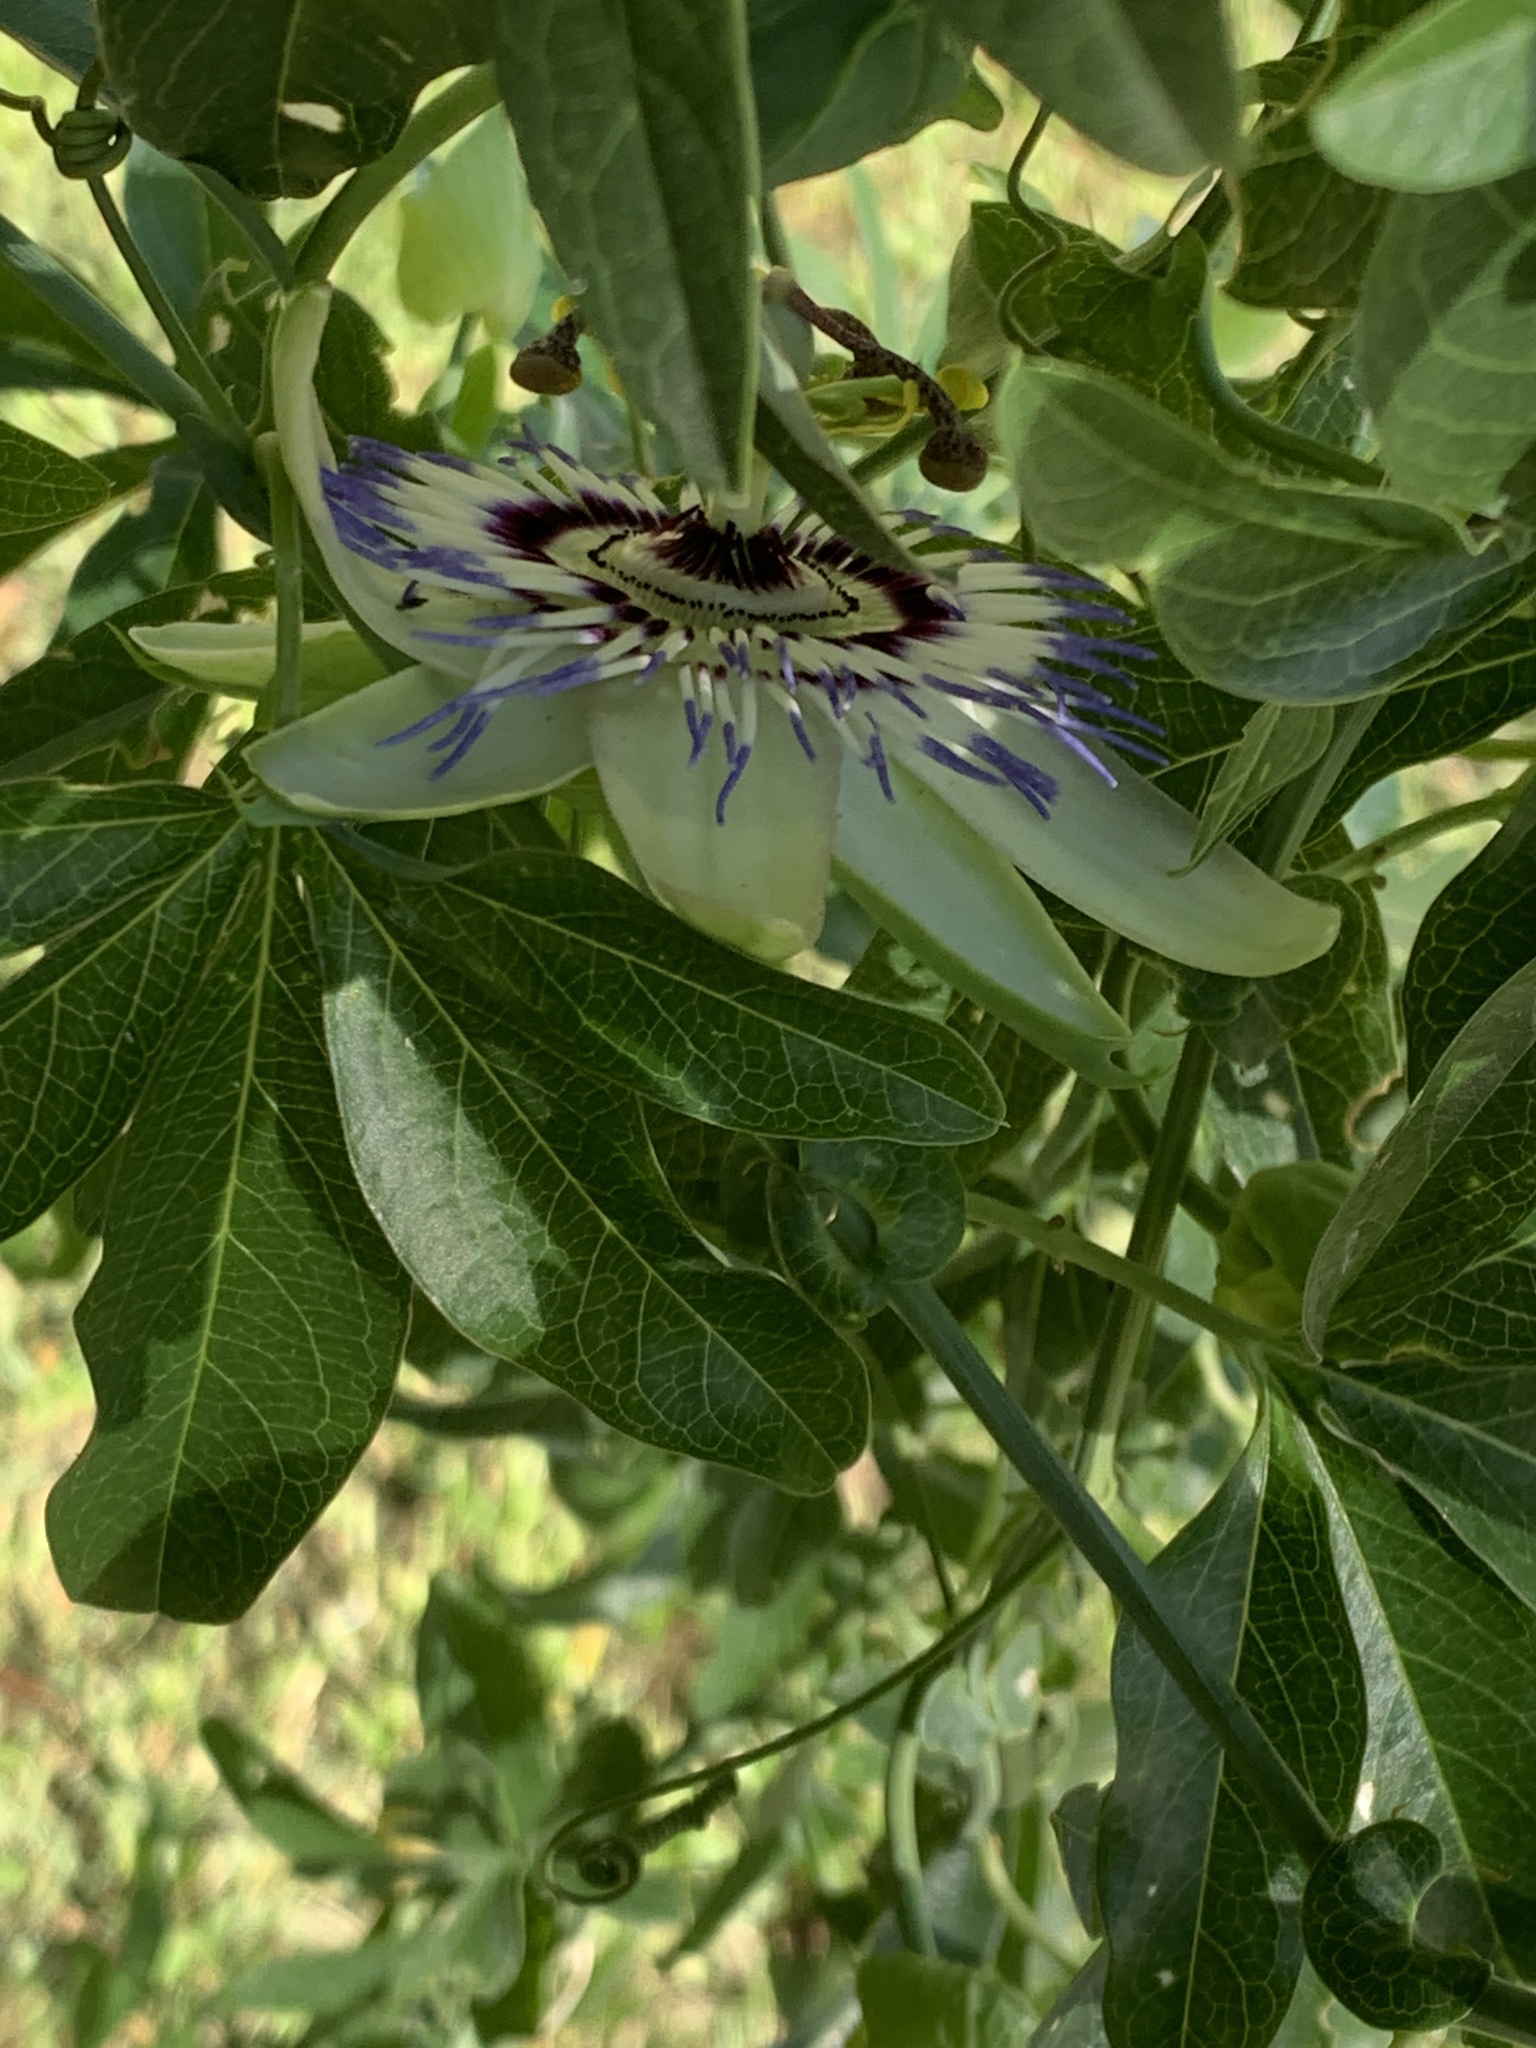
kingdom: Plantae
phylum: Tracheophyta
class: Magnoliopsida
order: Malpighiales
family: Passifloraceae
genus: Passiflora
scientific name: Passiflora caerulea
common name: Blue passionflower
